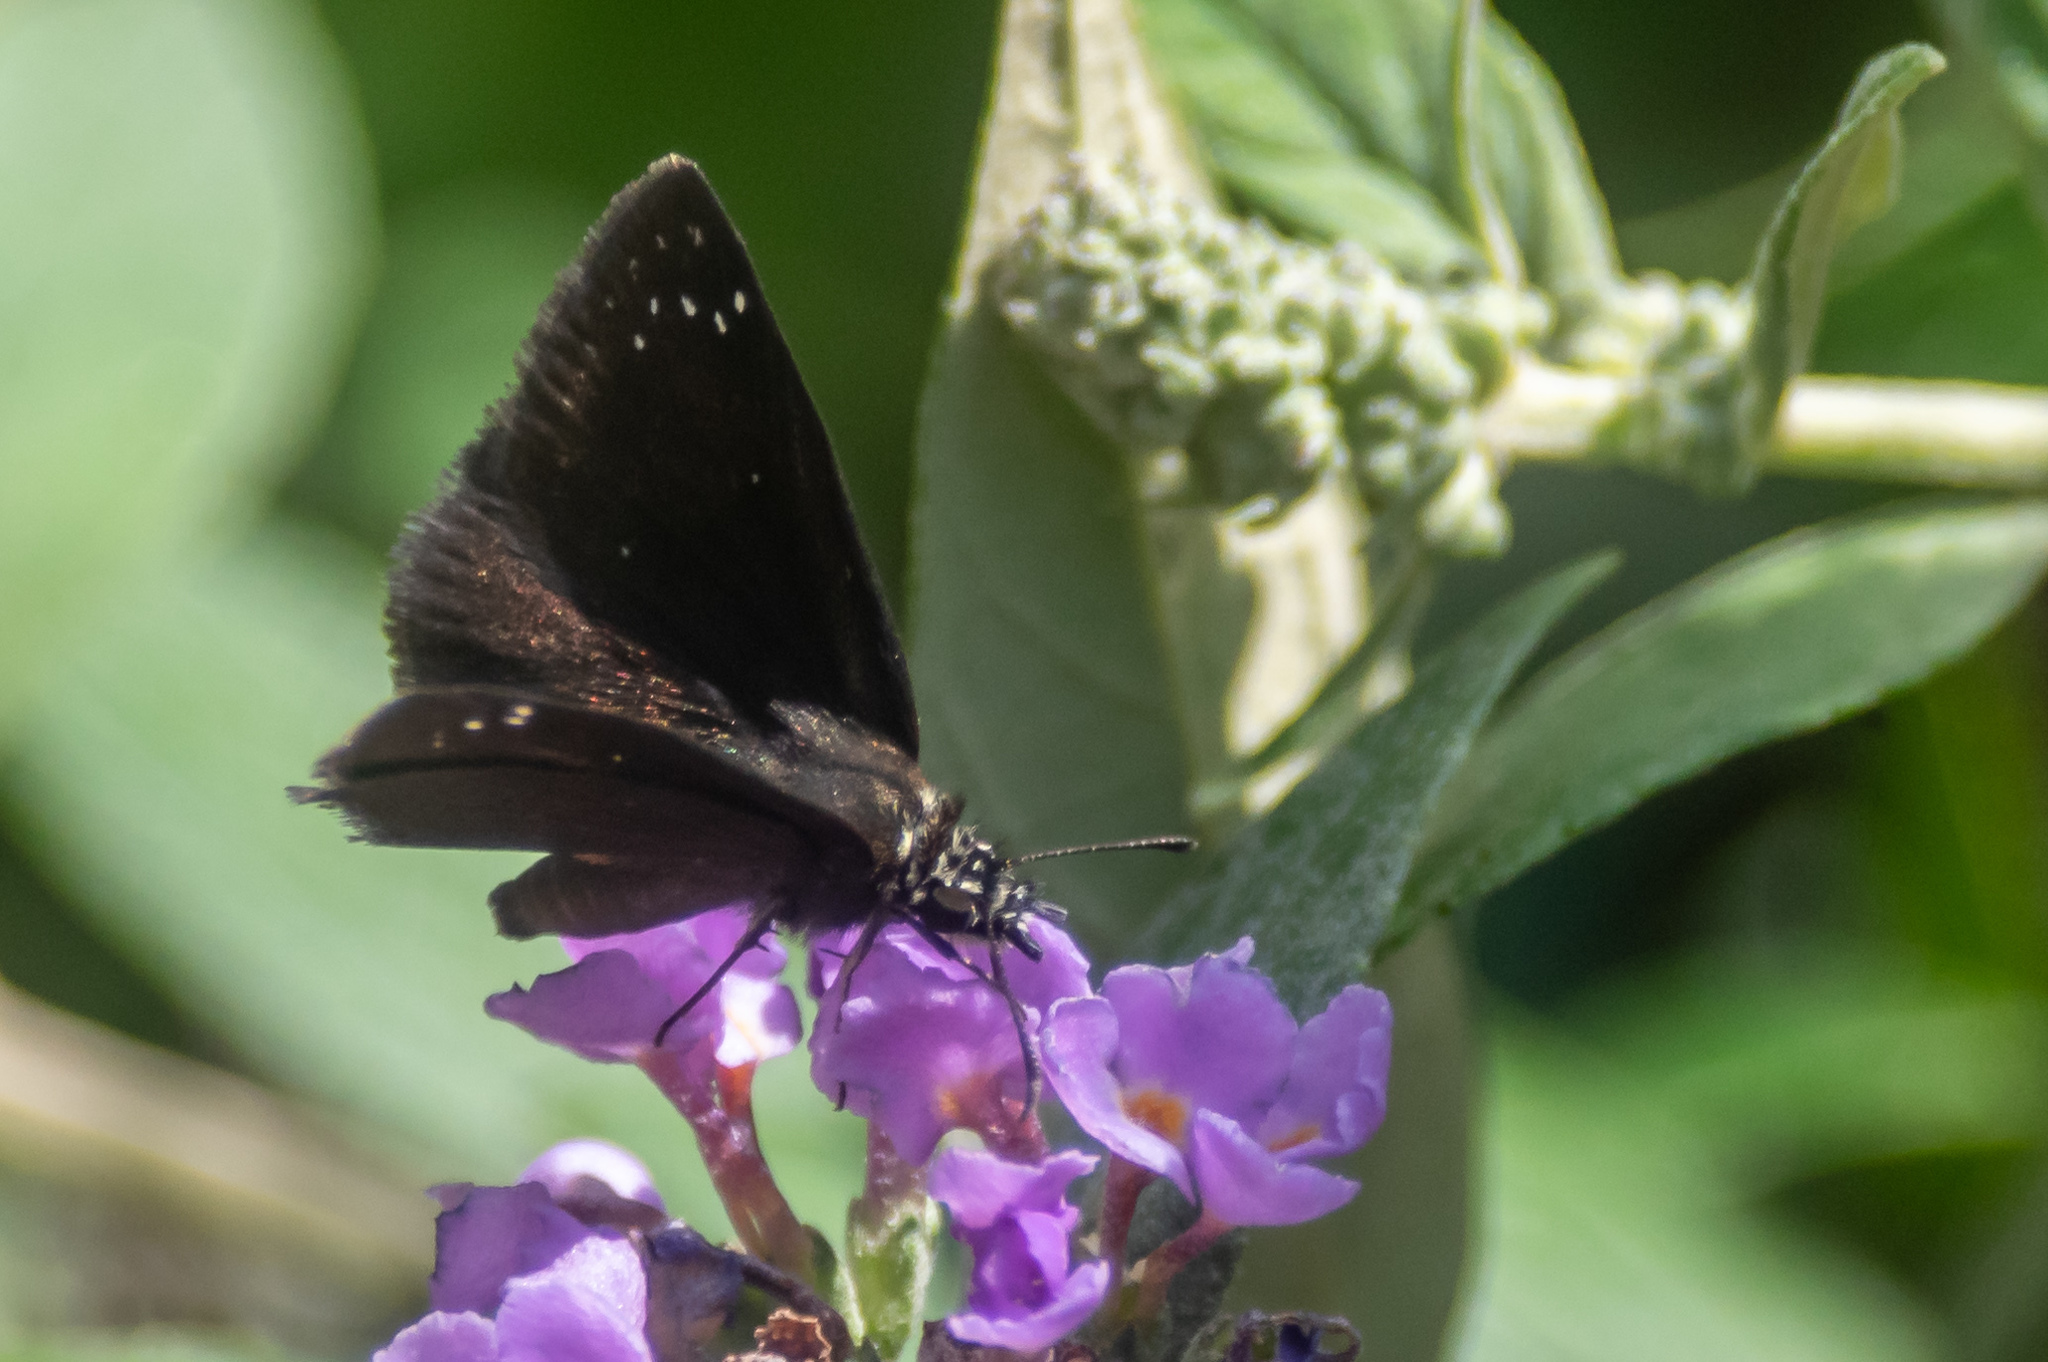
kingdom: Animalia
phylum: Arthropoda
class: Insecta
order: Lepidoptera
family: Hesperiidae
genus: Pholisora
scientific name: Pholisora catullus
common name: Common sootywing
